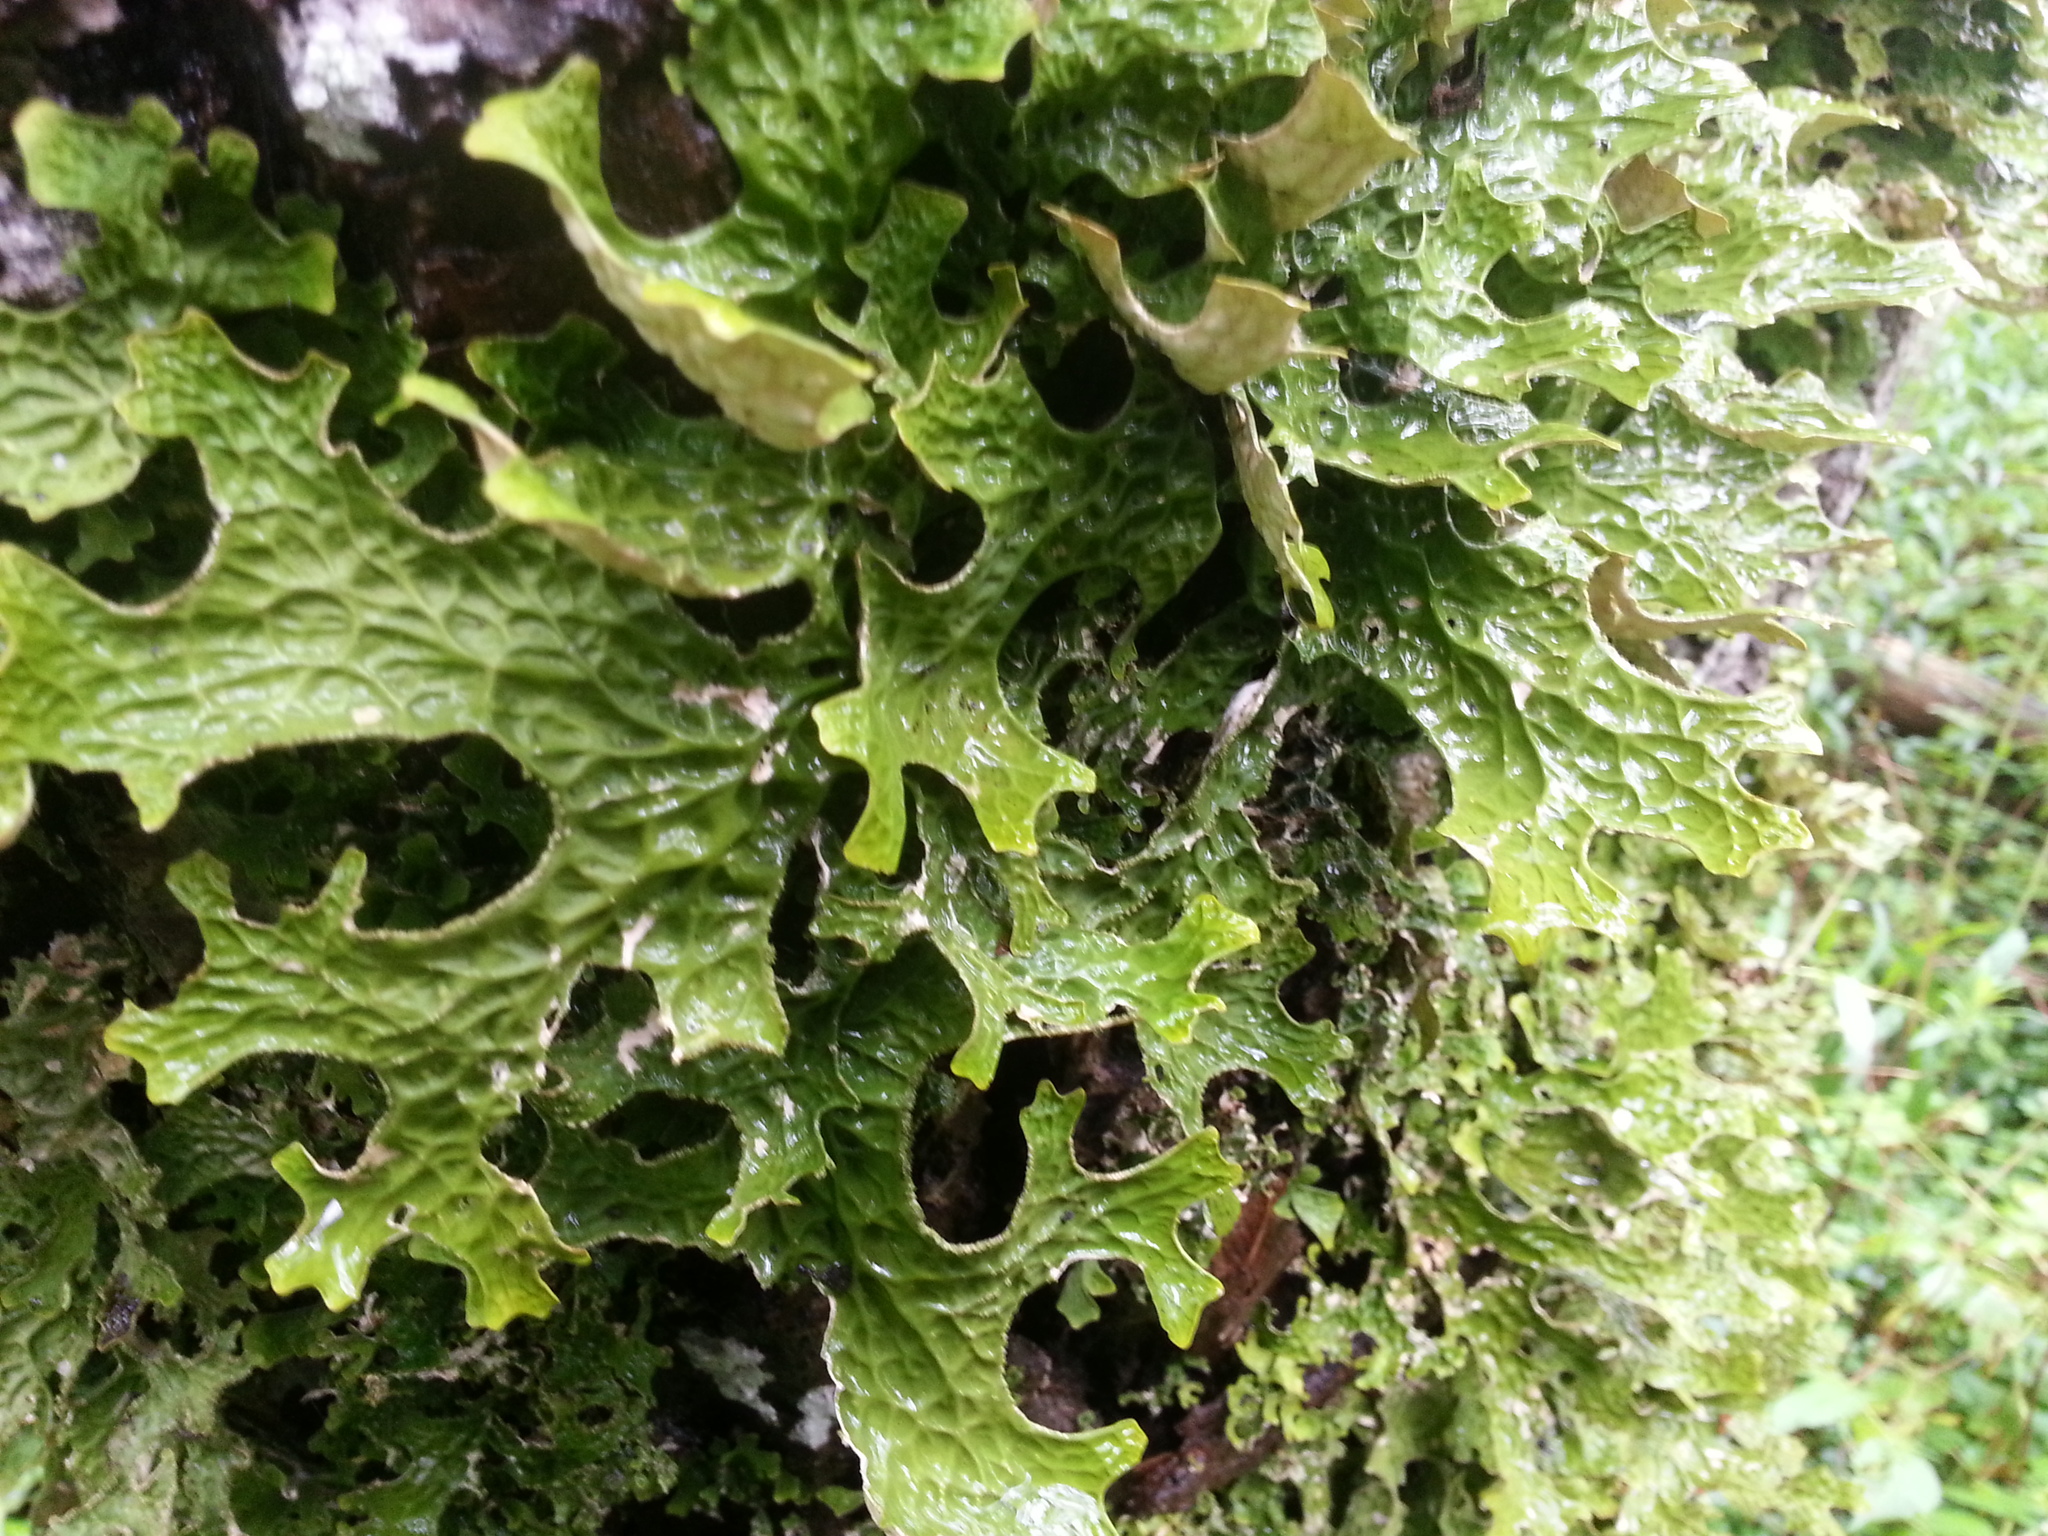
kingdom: Fungi
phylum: Ascomycota
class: Lecanoromycetes
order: Peltigerales
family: Lobariaceae
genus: Lobaria
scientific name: Lobaria pulmonaria
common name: Lungwort
